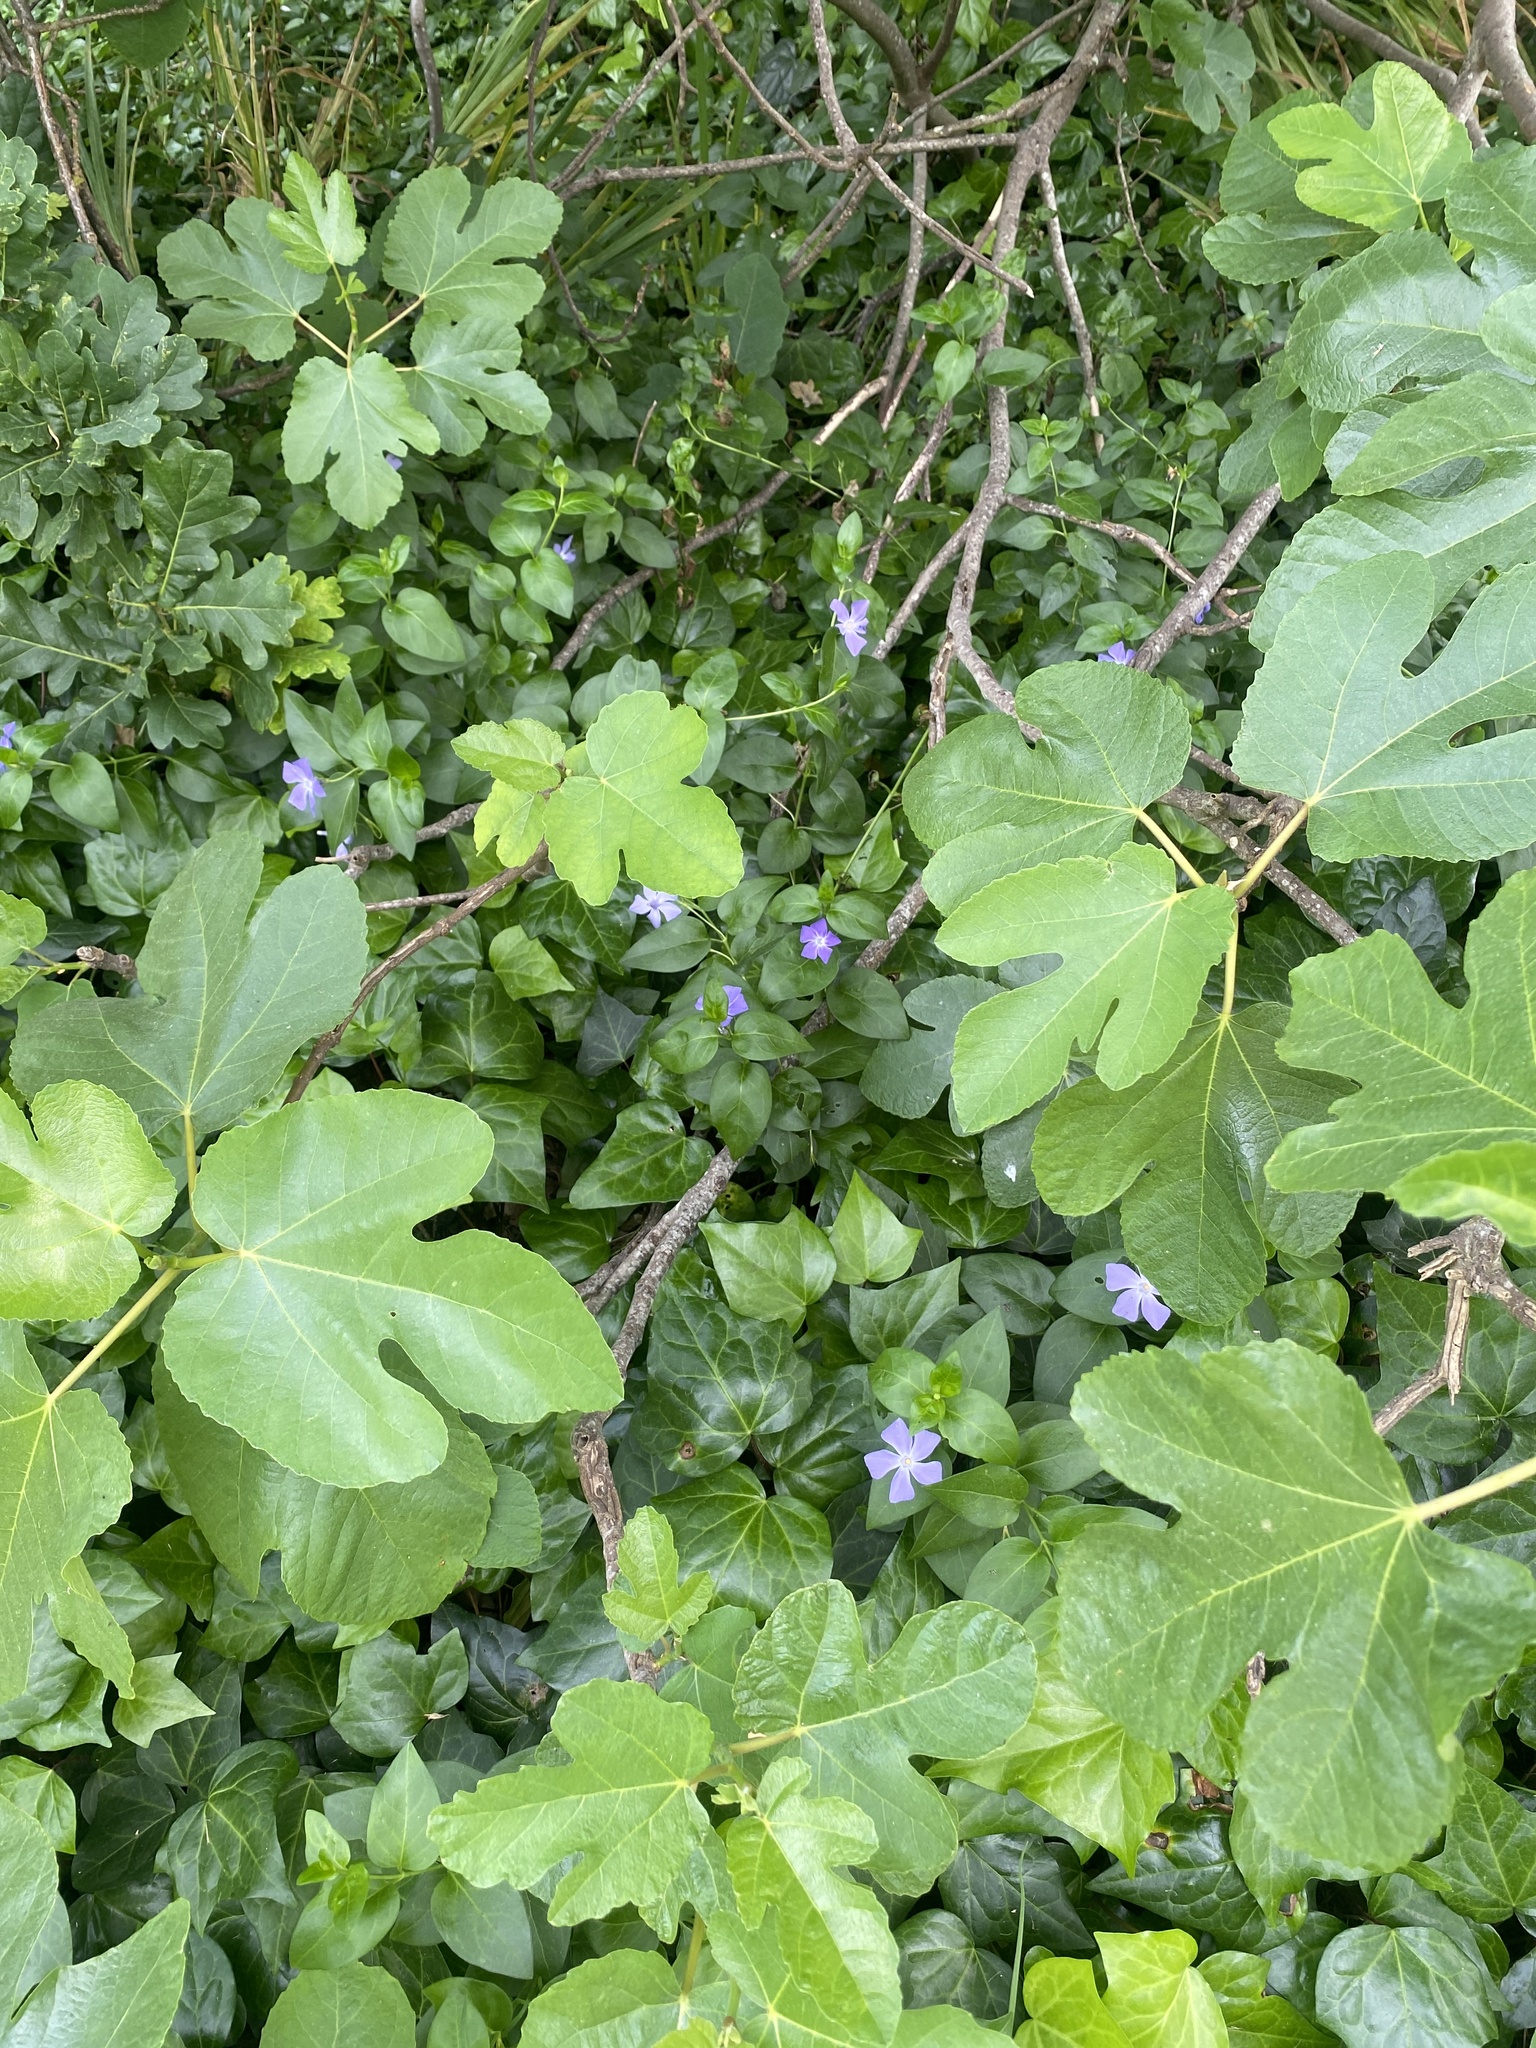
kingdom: Plantae
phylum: Tracheophyta
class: Magnoliopsida
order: Gentianales
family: Apocynaceae
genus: Vinca
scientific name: Vinca major
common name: Greater periwinkle
